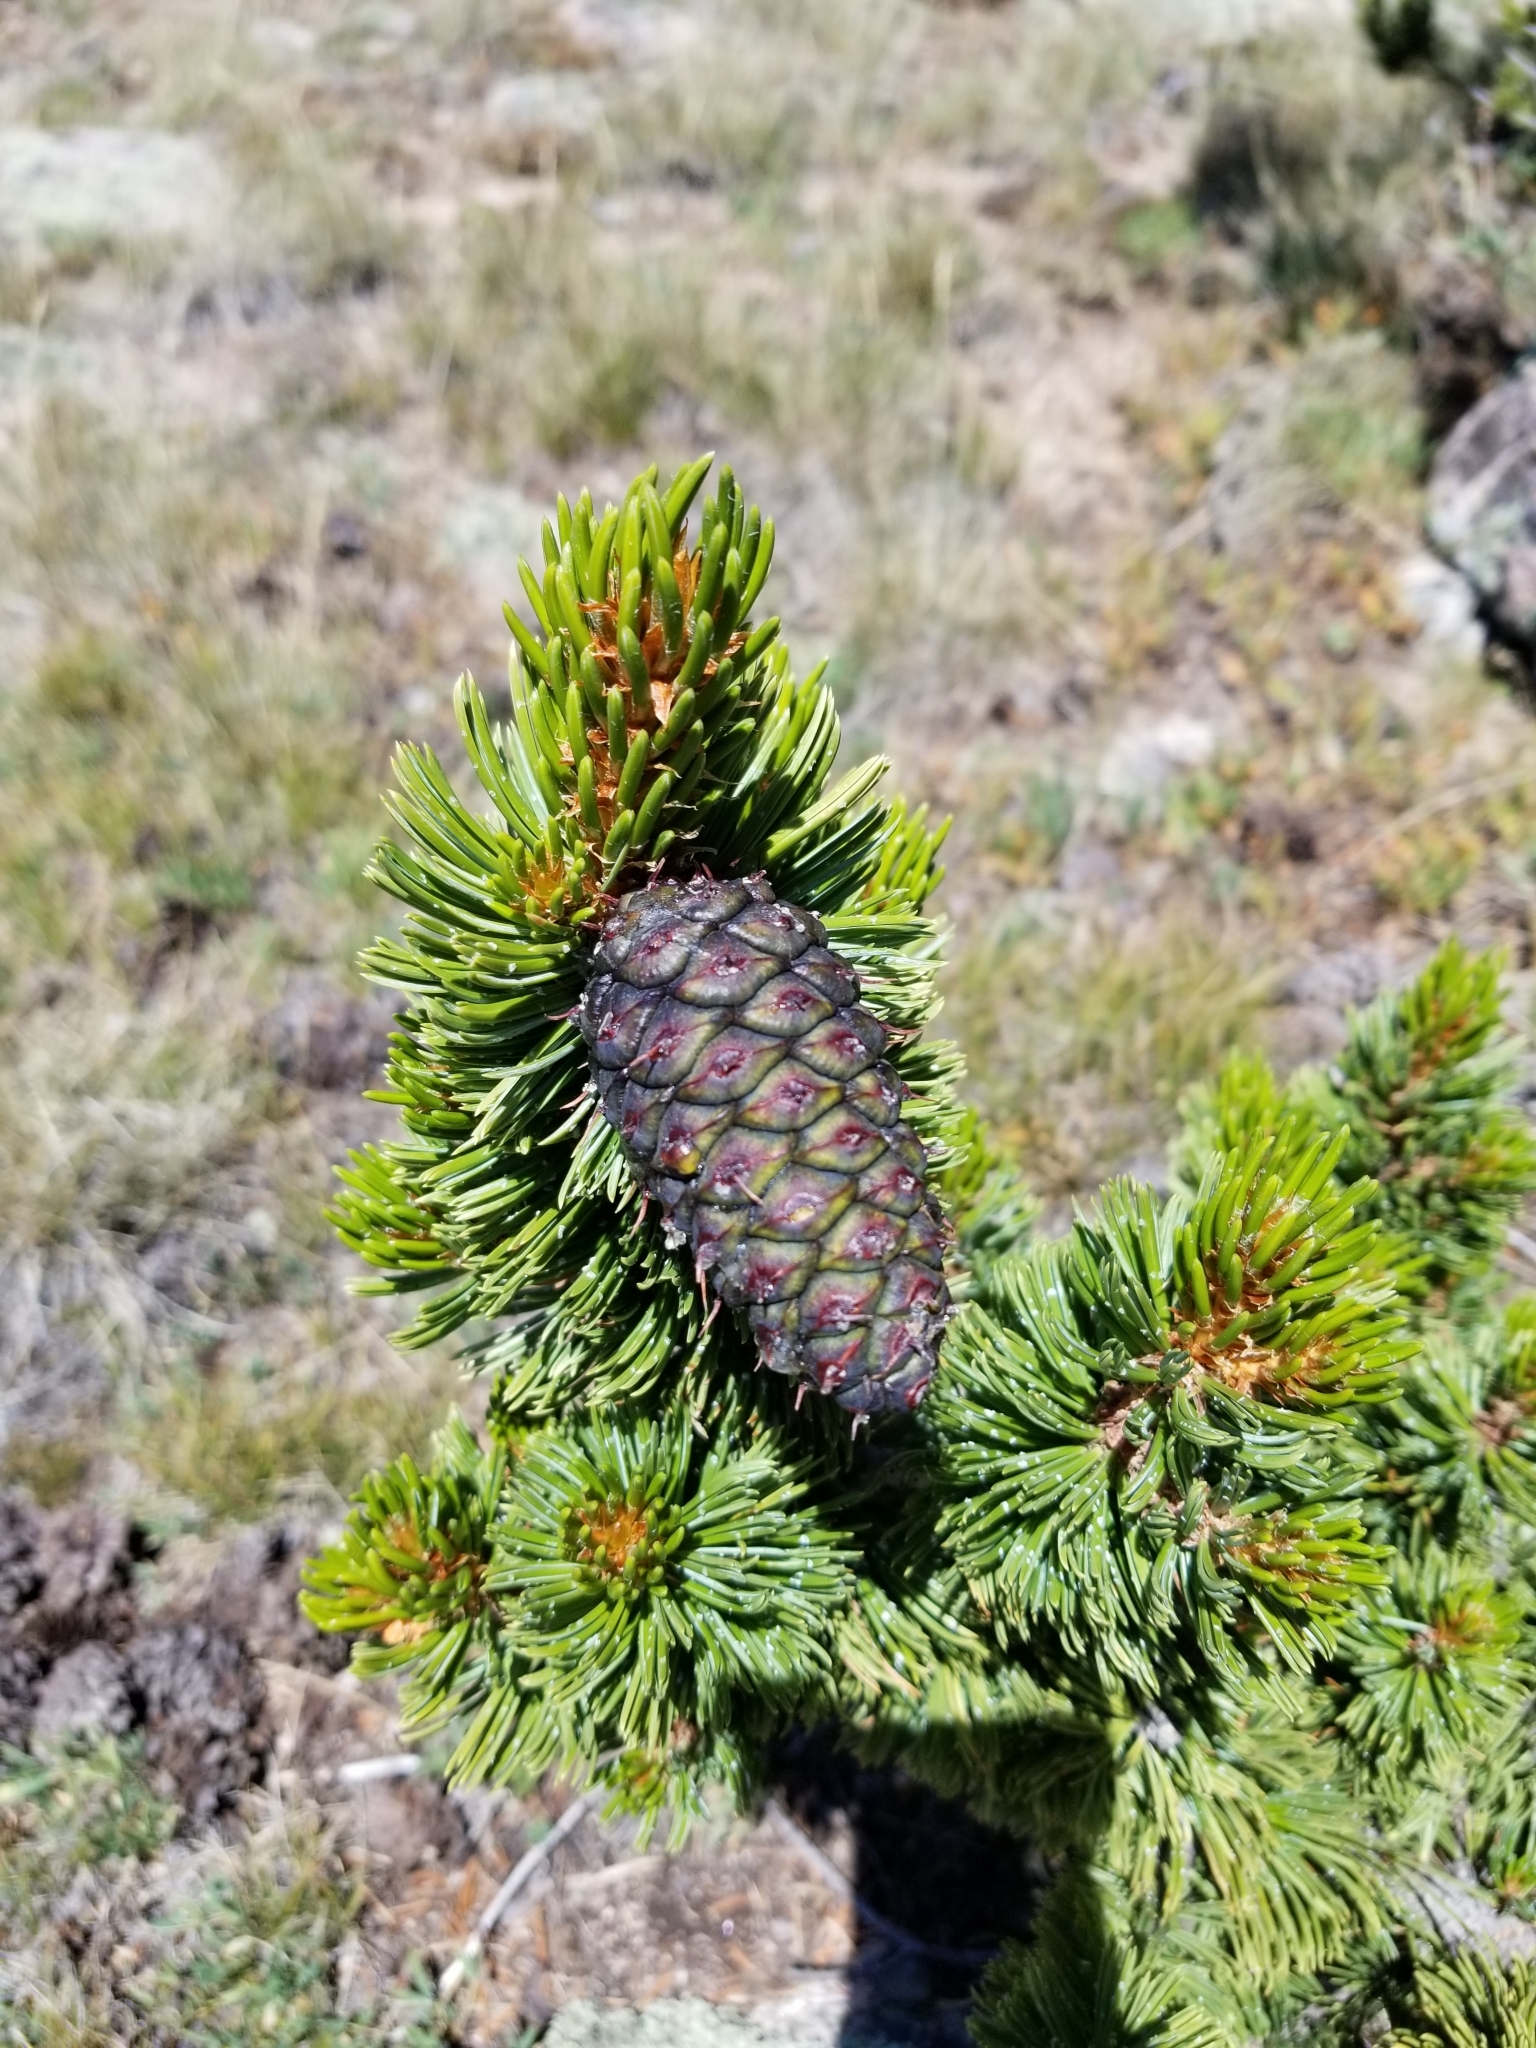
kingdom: Plantae
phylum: Tracheophyta
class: Pinopsida
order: Pinales
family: Pinaceae
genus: Pinus
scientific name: Pinus aristata
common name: Colorado bristlecone pine
